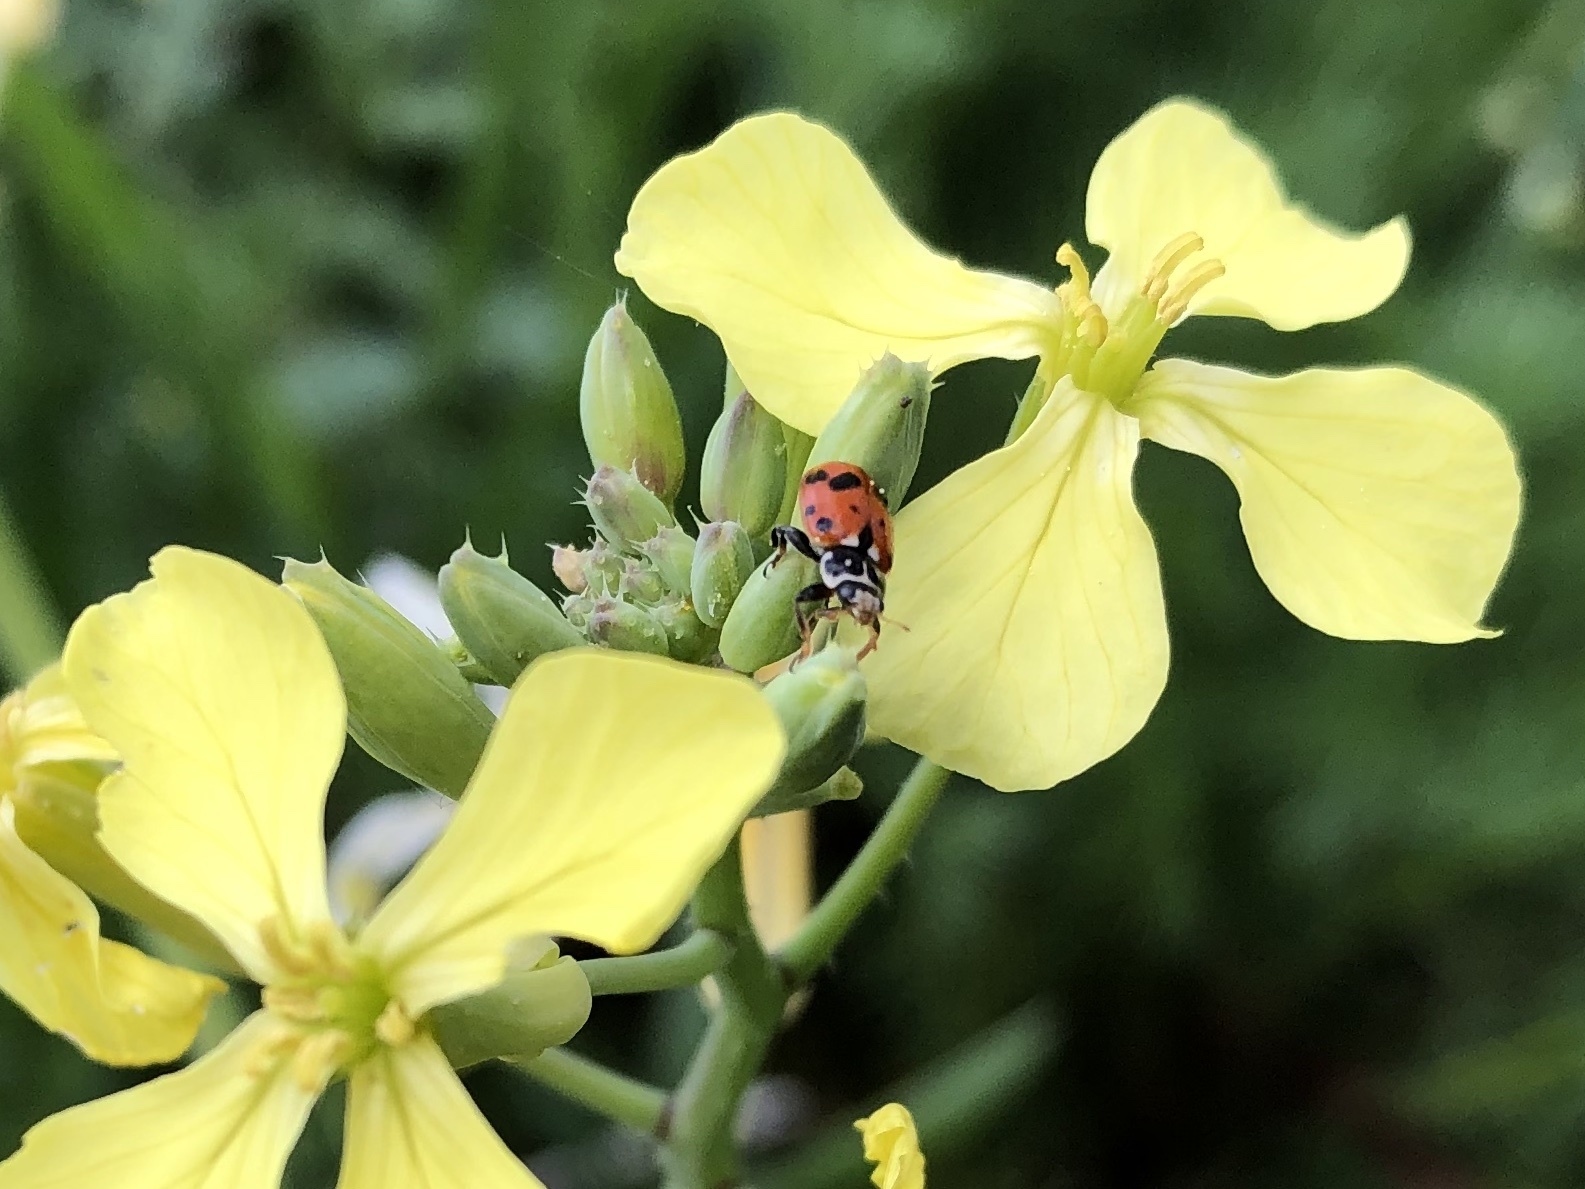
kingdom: Animalia
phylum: Arthropoda
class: Insecta
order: Coleoptera
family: Coccinellidae
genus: Hippodamia
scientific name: Hippodamia variegata
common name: Ladybird beetle
